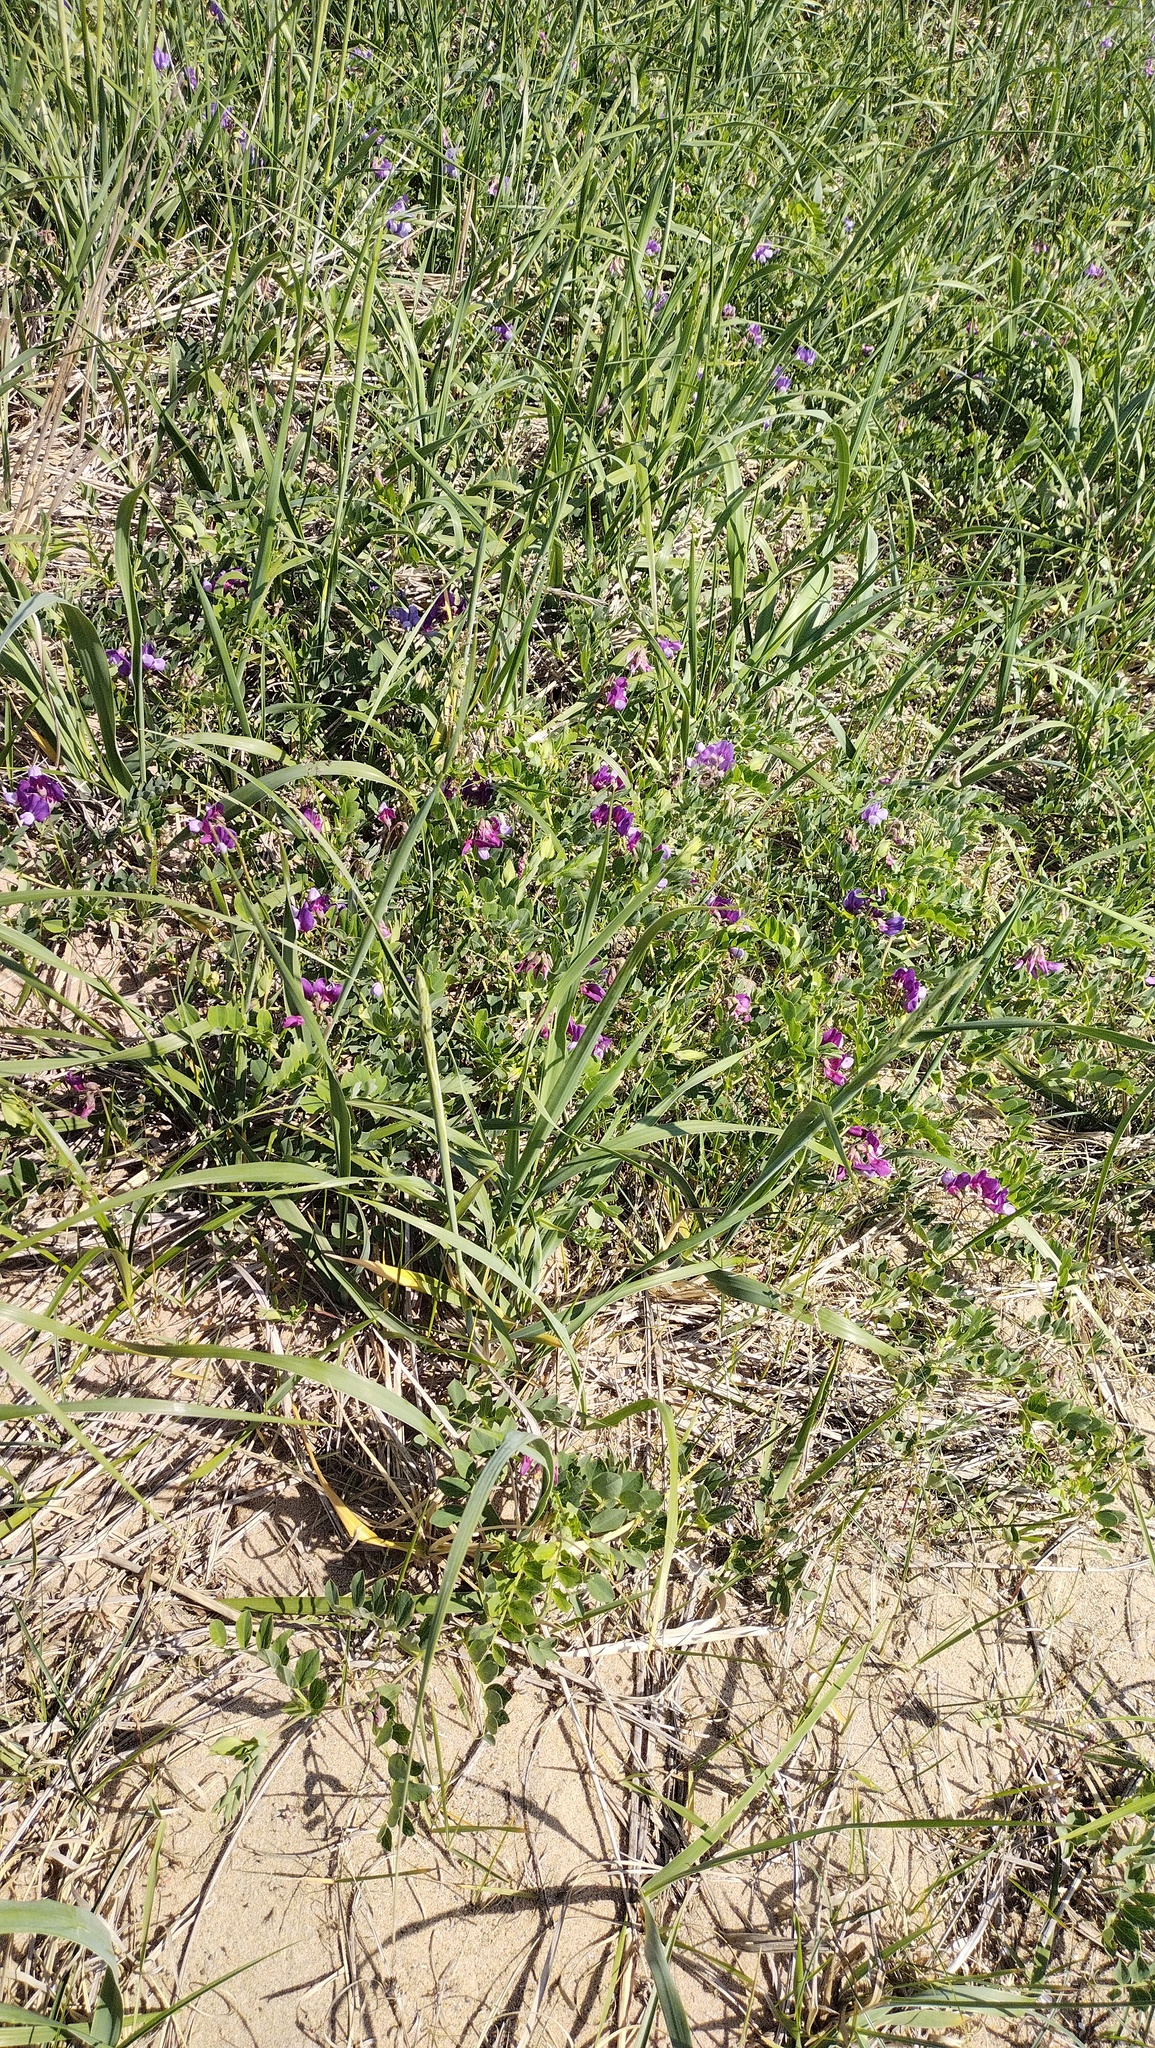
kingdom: Plantae
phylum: Tracheophyta
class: Magnoliopsida
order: Fabales
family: Fabaceae
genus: Lathyrus
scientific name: Lathyrus japonicus
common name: Sea pea
